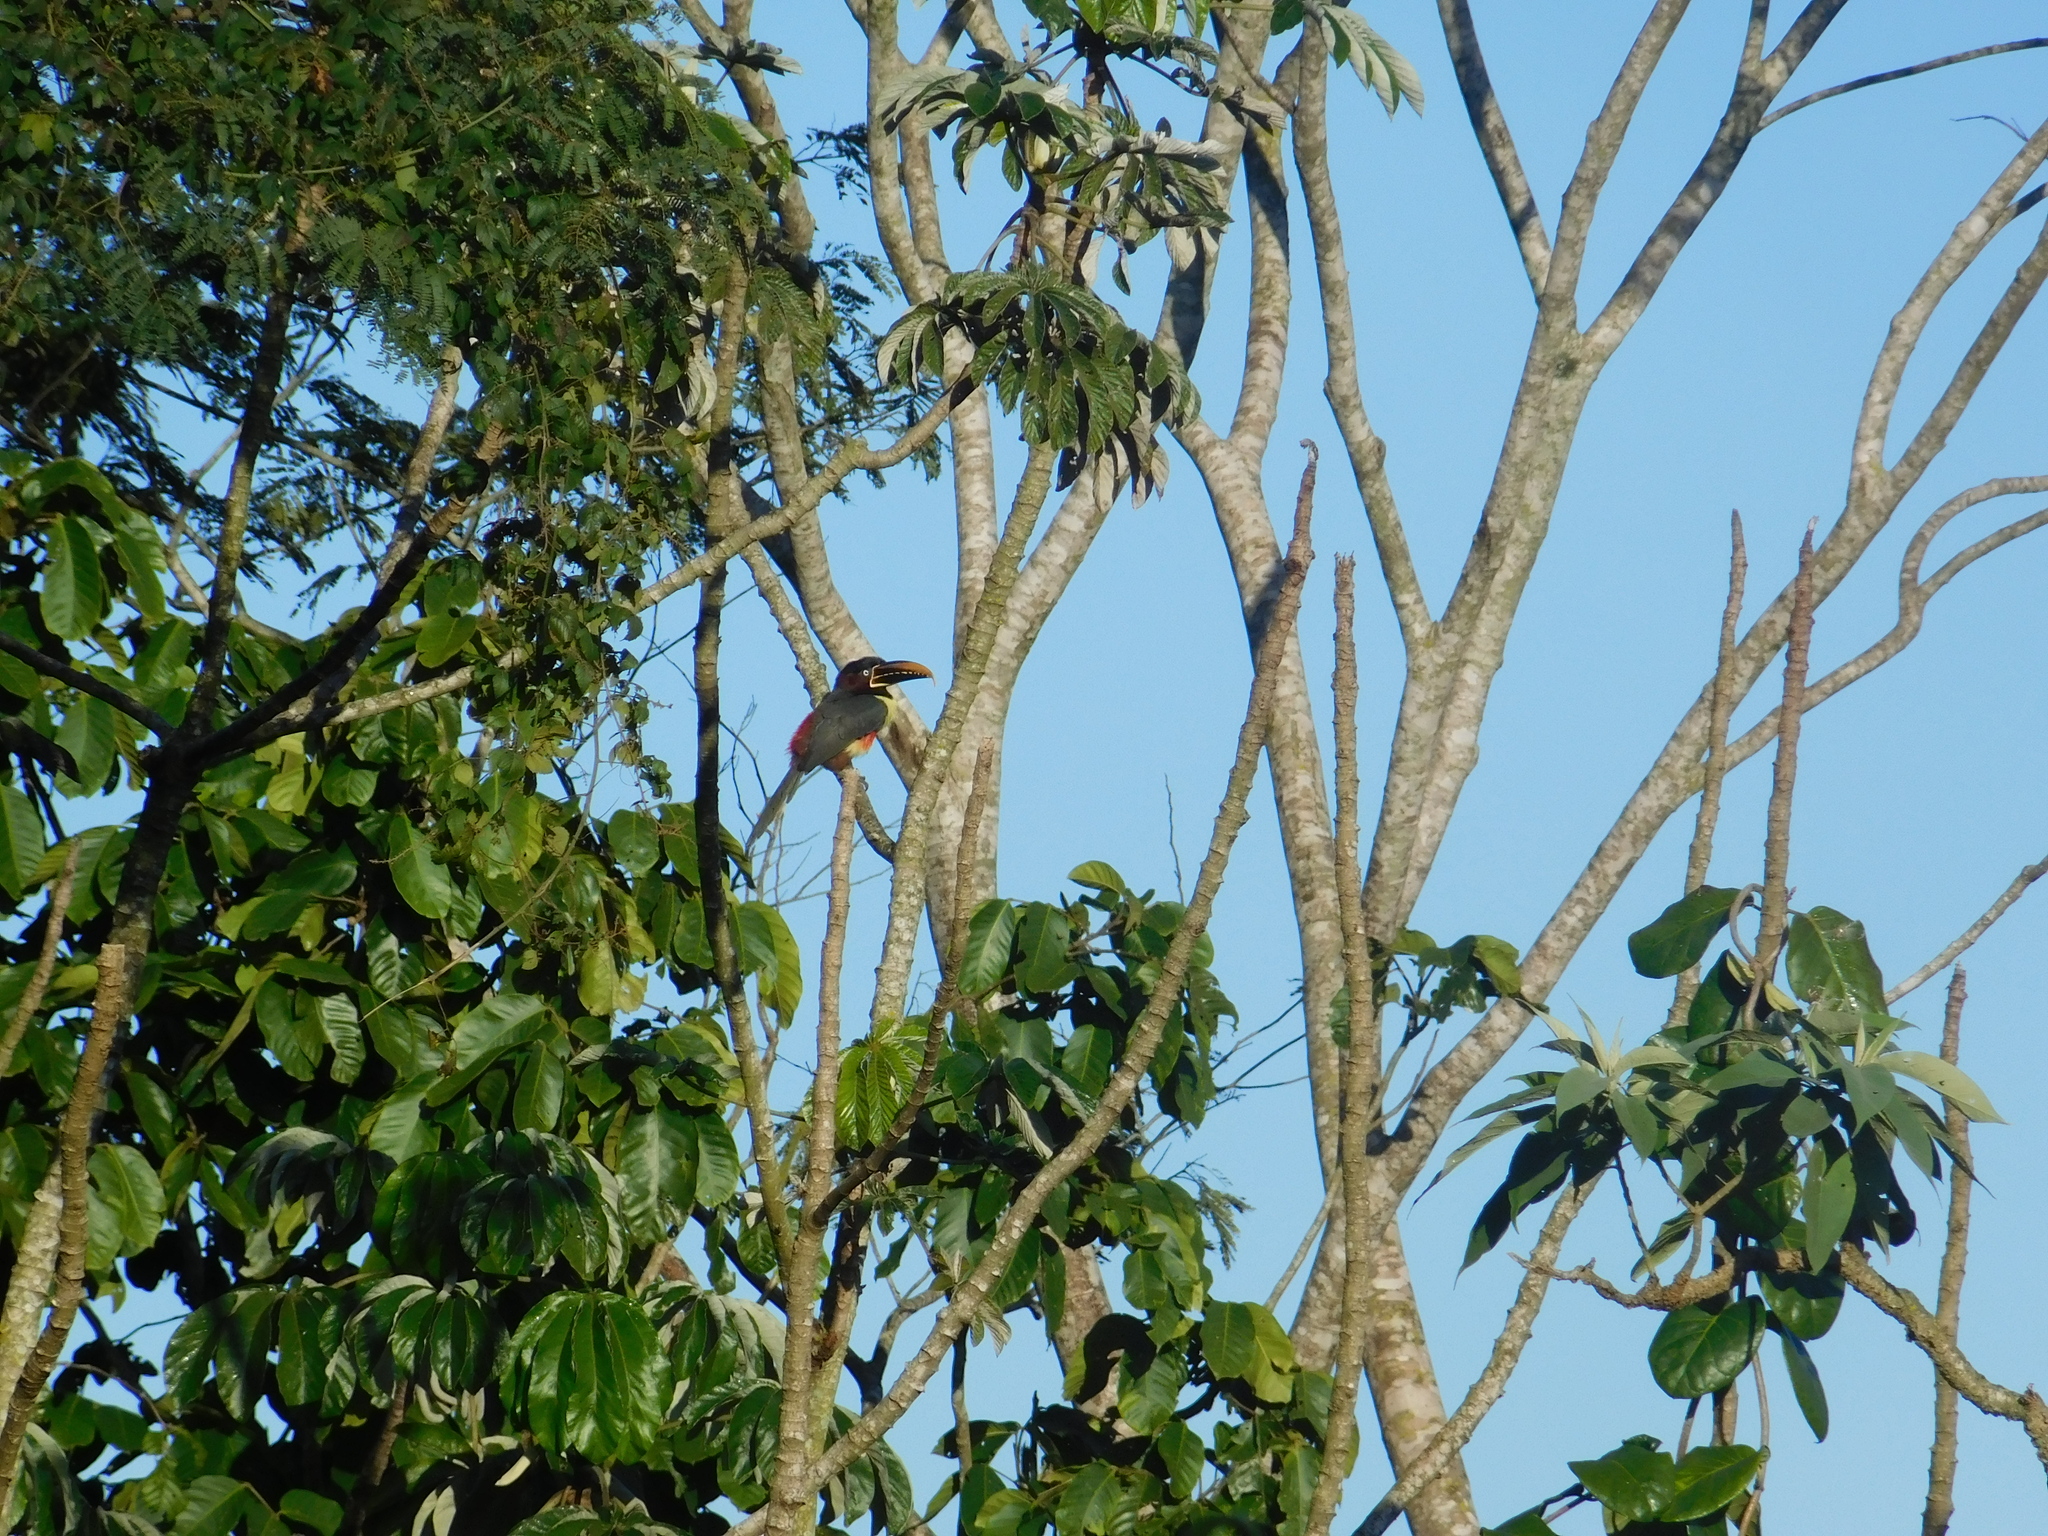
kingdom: Animalia
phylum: Chordata
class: Aves
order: Piciformes
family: Ramphastidae
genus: Pteroglossus
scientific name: Pteroglossus castanotis
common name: Chestnut-eared aracari
